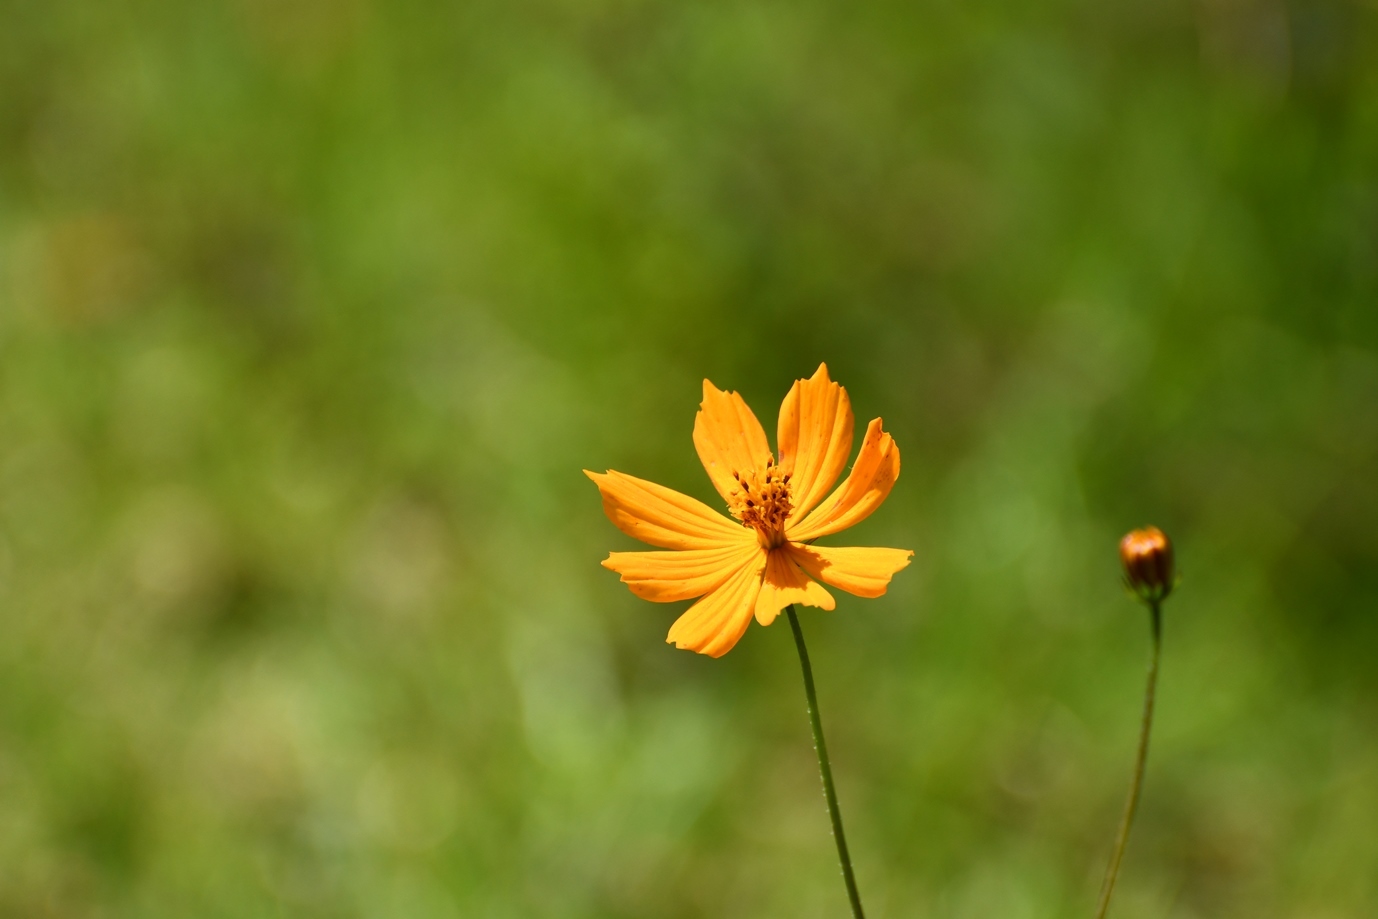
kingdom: Plantae
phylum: Tracheophyta
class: Magnoliopsida
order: Asterales
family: Asteraceae
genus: Cosmos
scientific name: Cosmos sulphureus
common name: Sulphur cosmos
